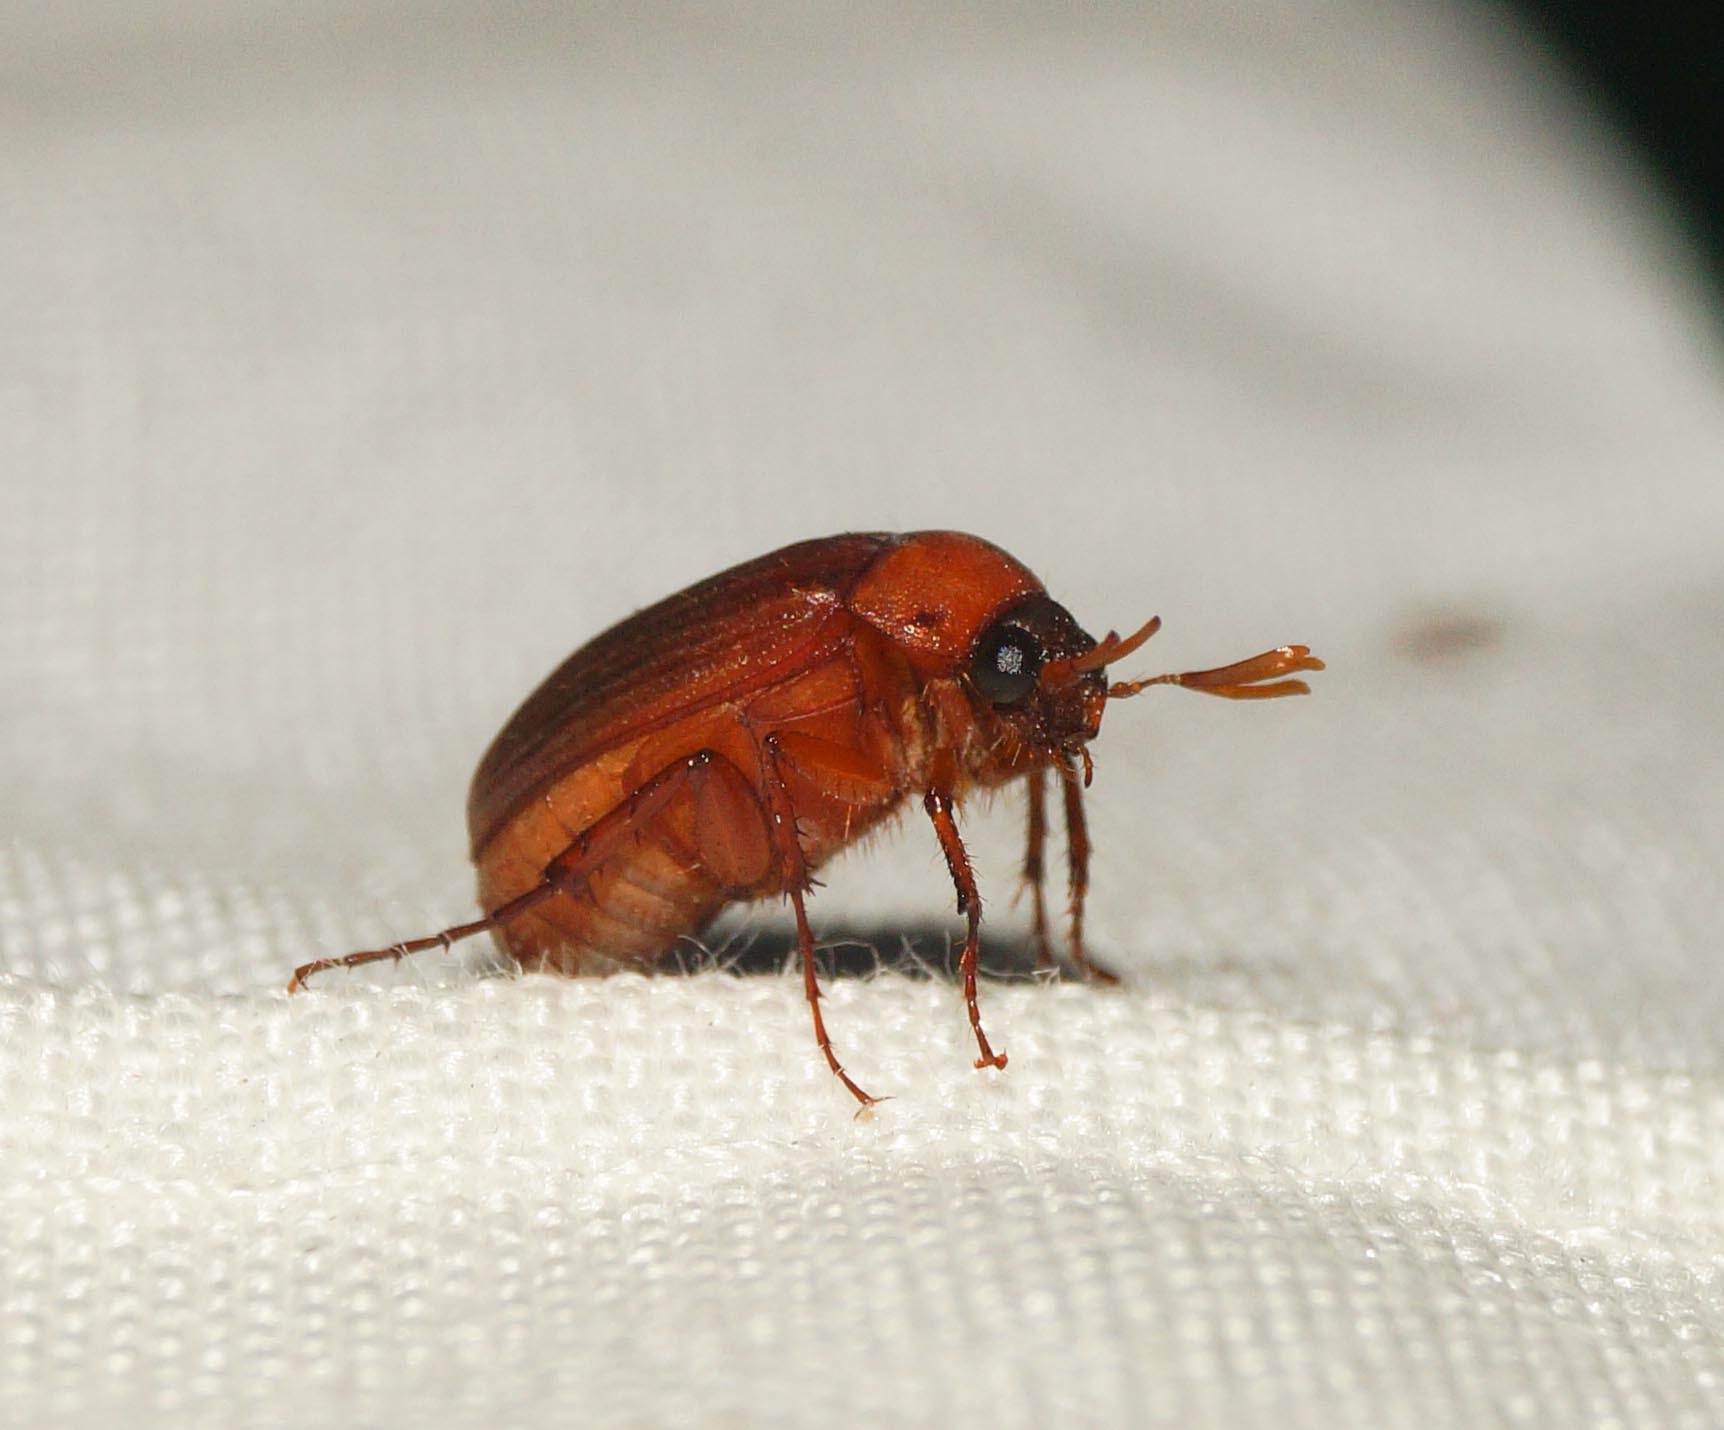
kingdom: Animalia
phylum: Arthropoda
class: Insecta
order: Coleoptera
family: Scarabaeidae
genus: Serica
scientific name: Serica brunnea
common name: Brown chafer
